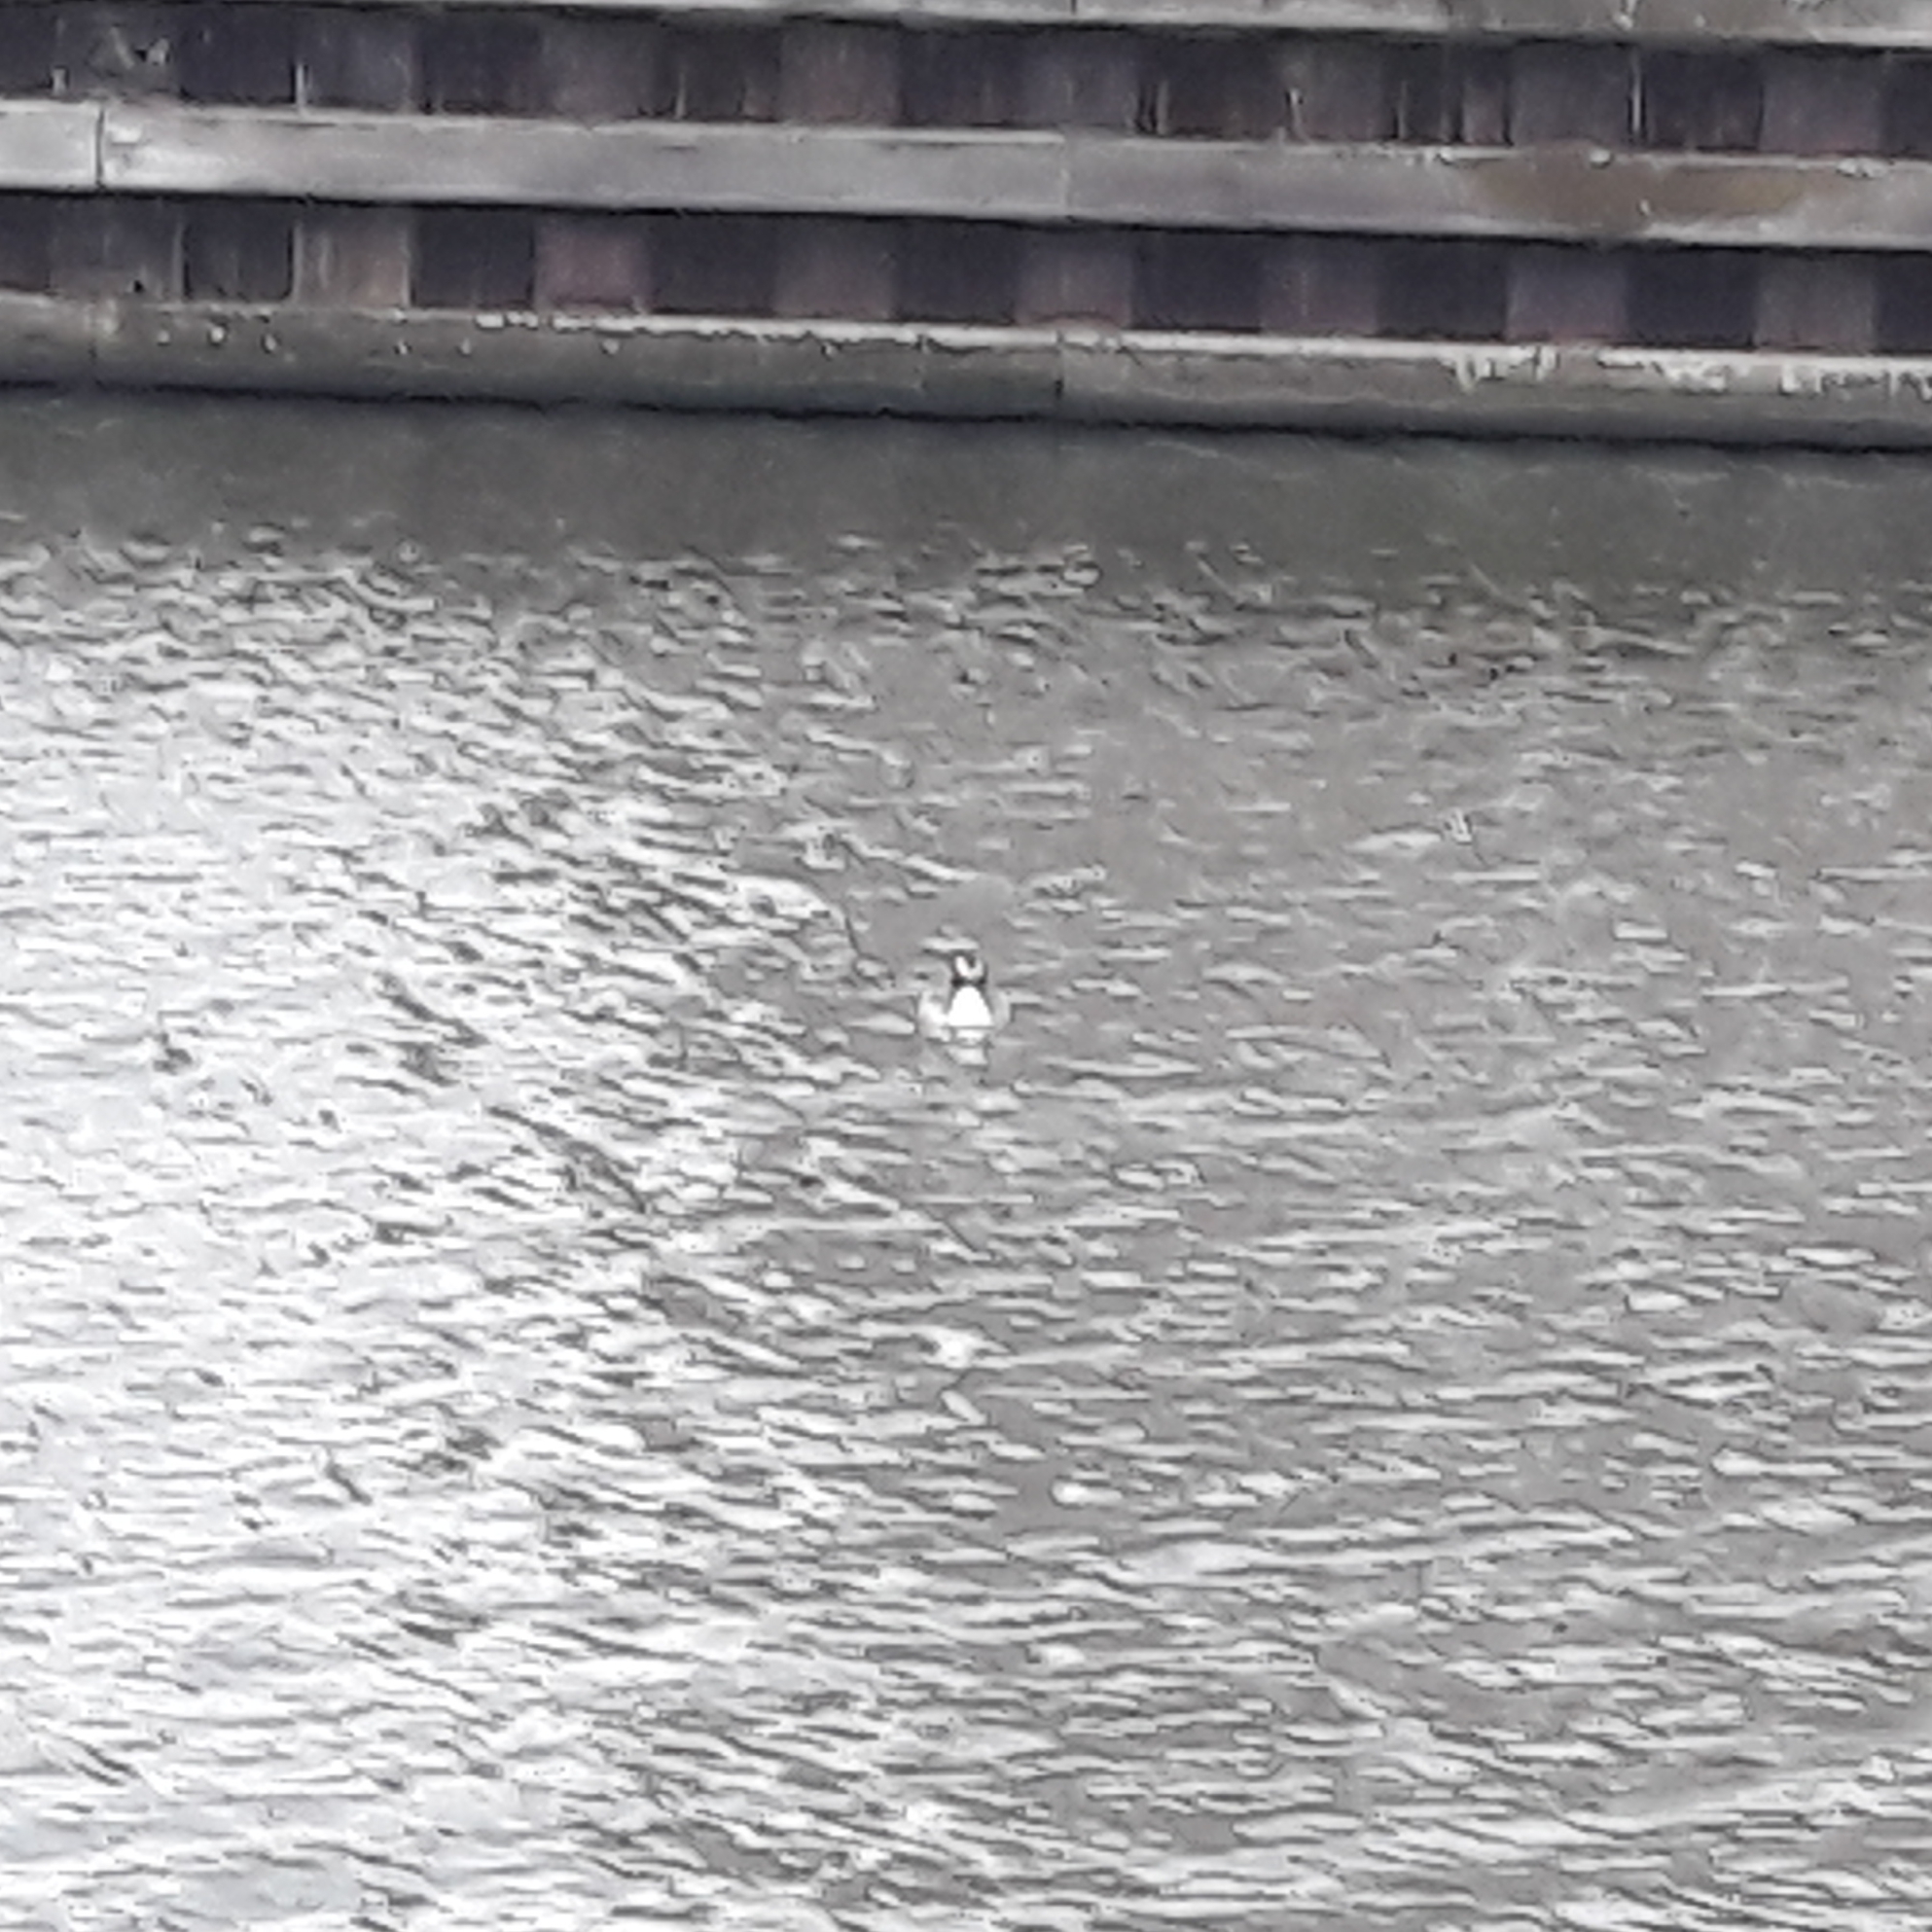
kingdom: Animalia
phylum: Chordata
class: Aves
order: Podicipediformes
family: Podicipedidae
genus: Podiceps
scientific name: Podiceps cristatus
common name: Great crested grebe
